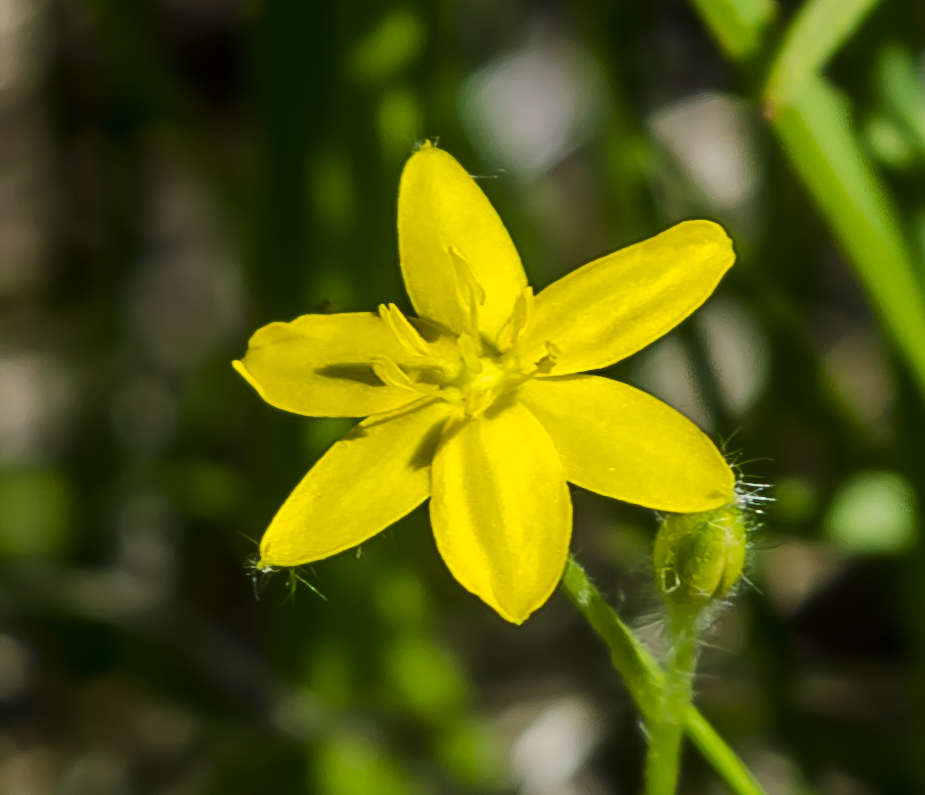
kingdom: Plantae
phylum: Tracheophyta
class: Liliopsida
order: Asparagales
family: Hypoxidaceae
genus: Hypoxis
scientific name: Hypoxis hirsuta
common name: Common goldstar
